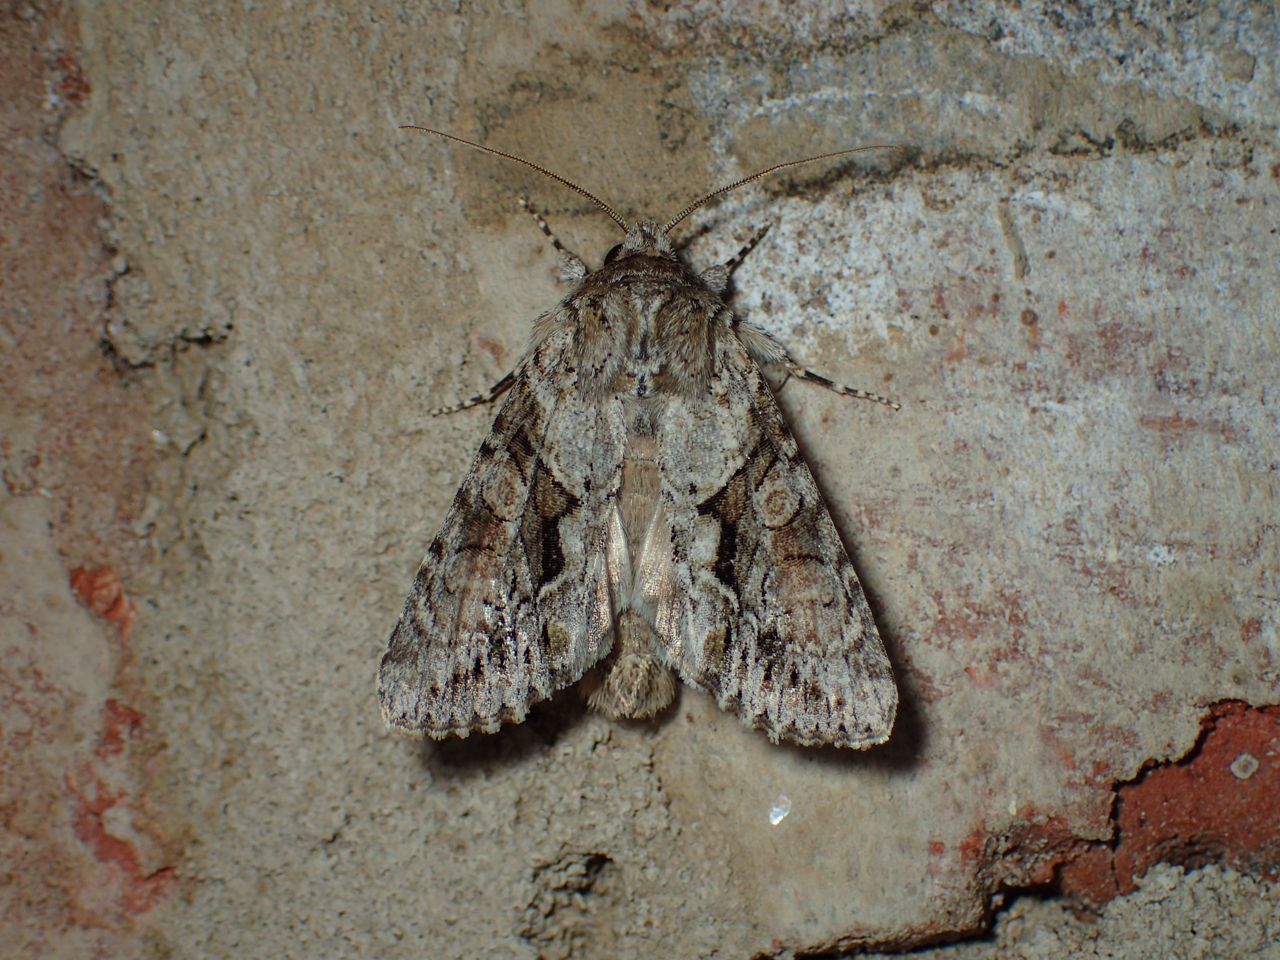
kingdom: Animalia
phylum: Arthropoda
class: Insecta
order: Lepidoptera
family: Noctuidae
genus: Achatia
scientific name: Achatia distincta
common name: Distinct quaker
